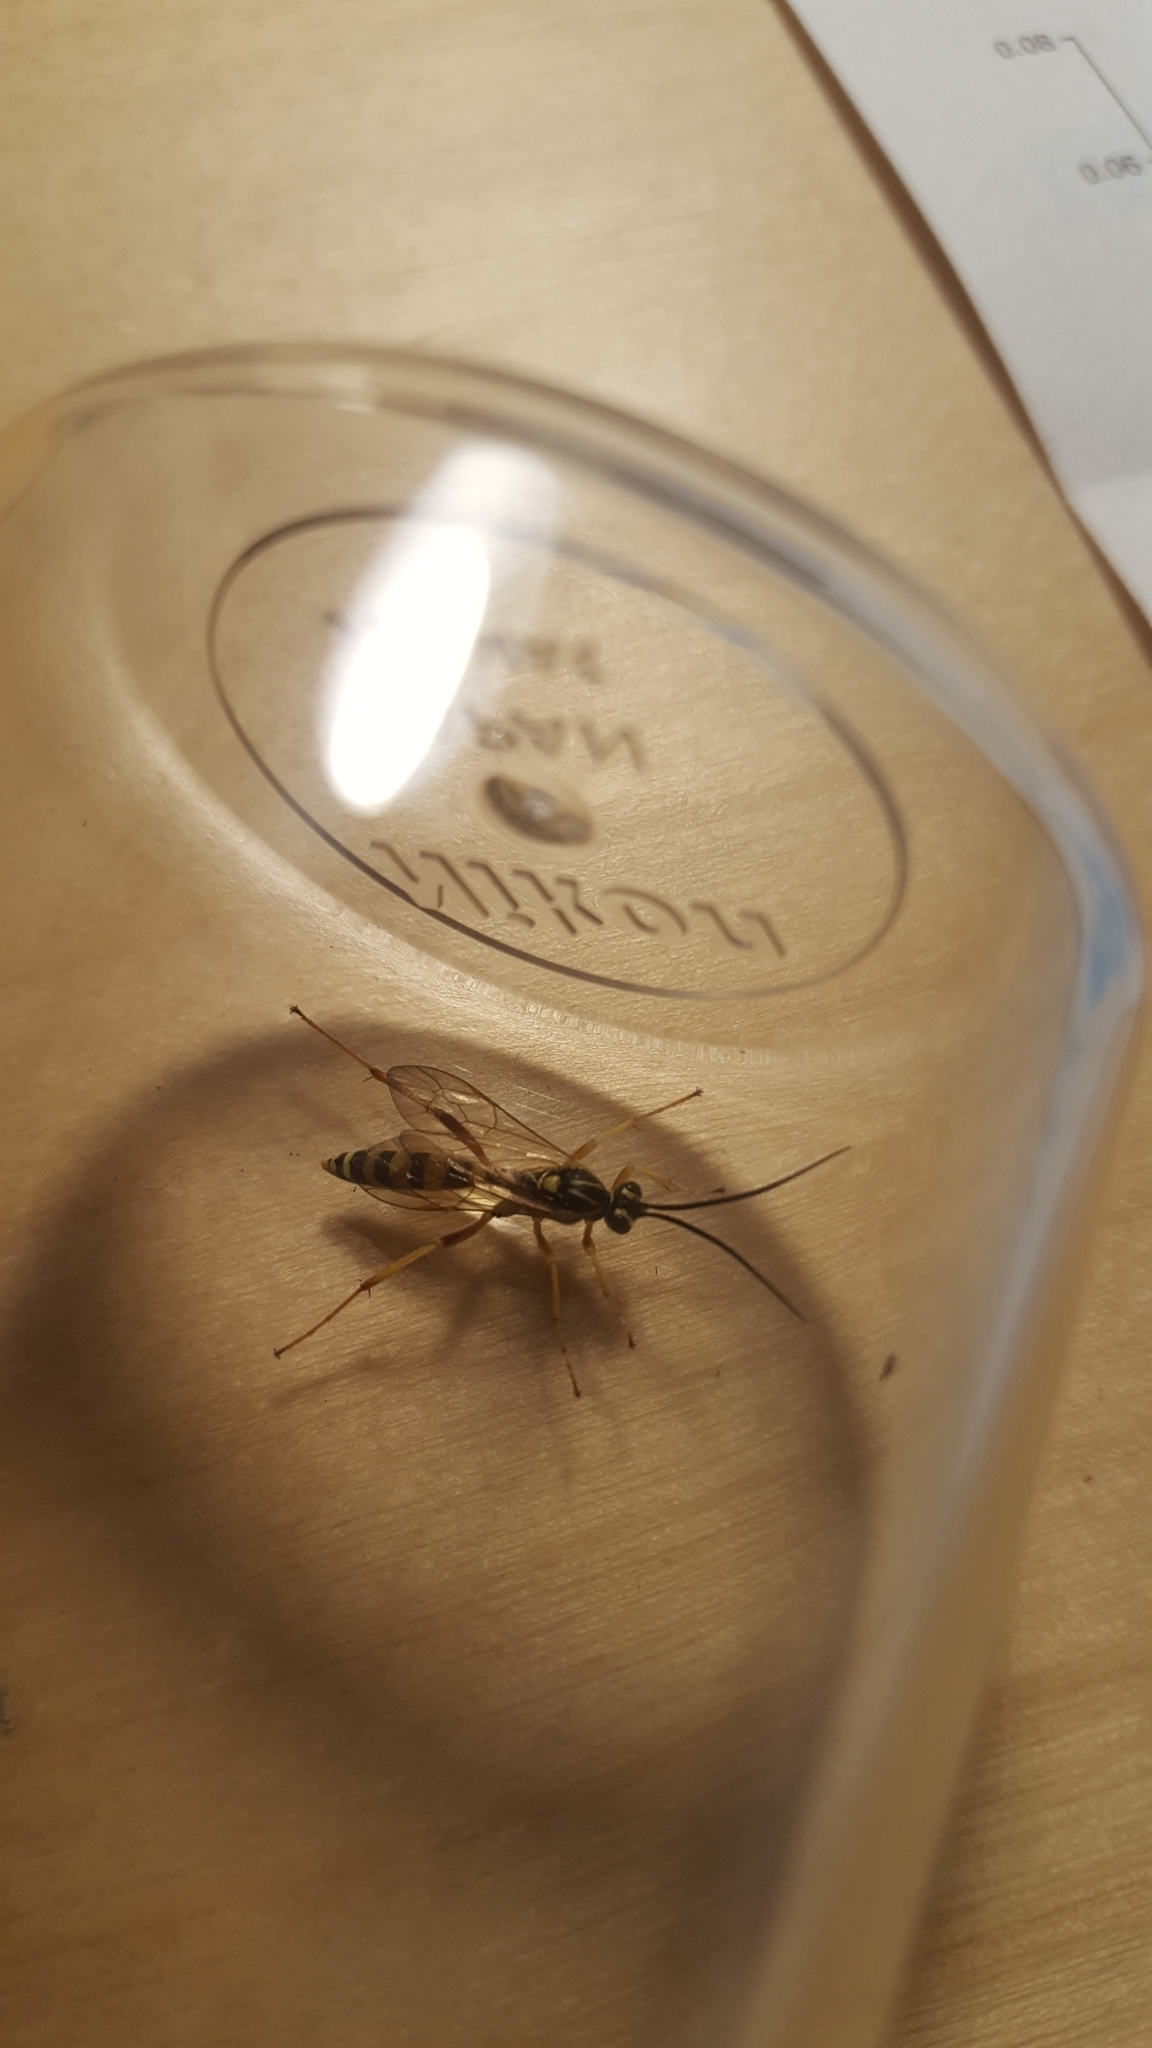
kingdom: Animalia
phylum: Arthropoda
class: Insecta
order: Hymenoptera
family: Ichneumonidae
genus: Setanta
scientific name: Setanta compta
